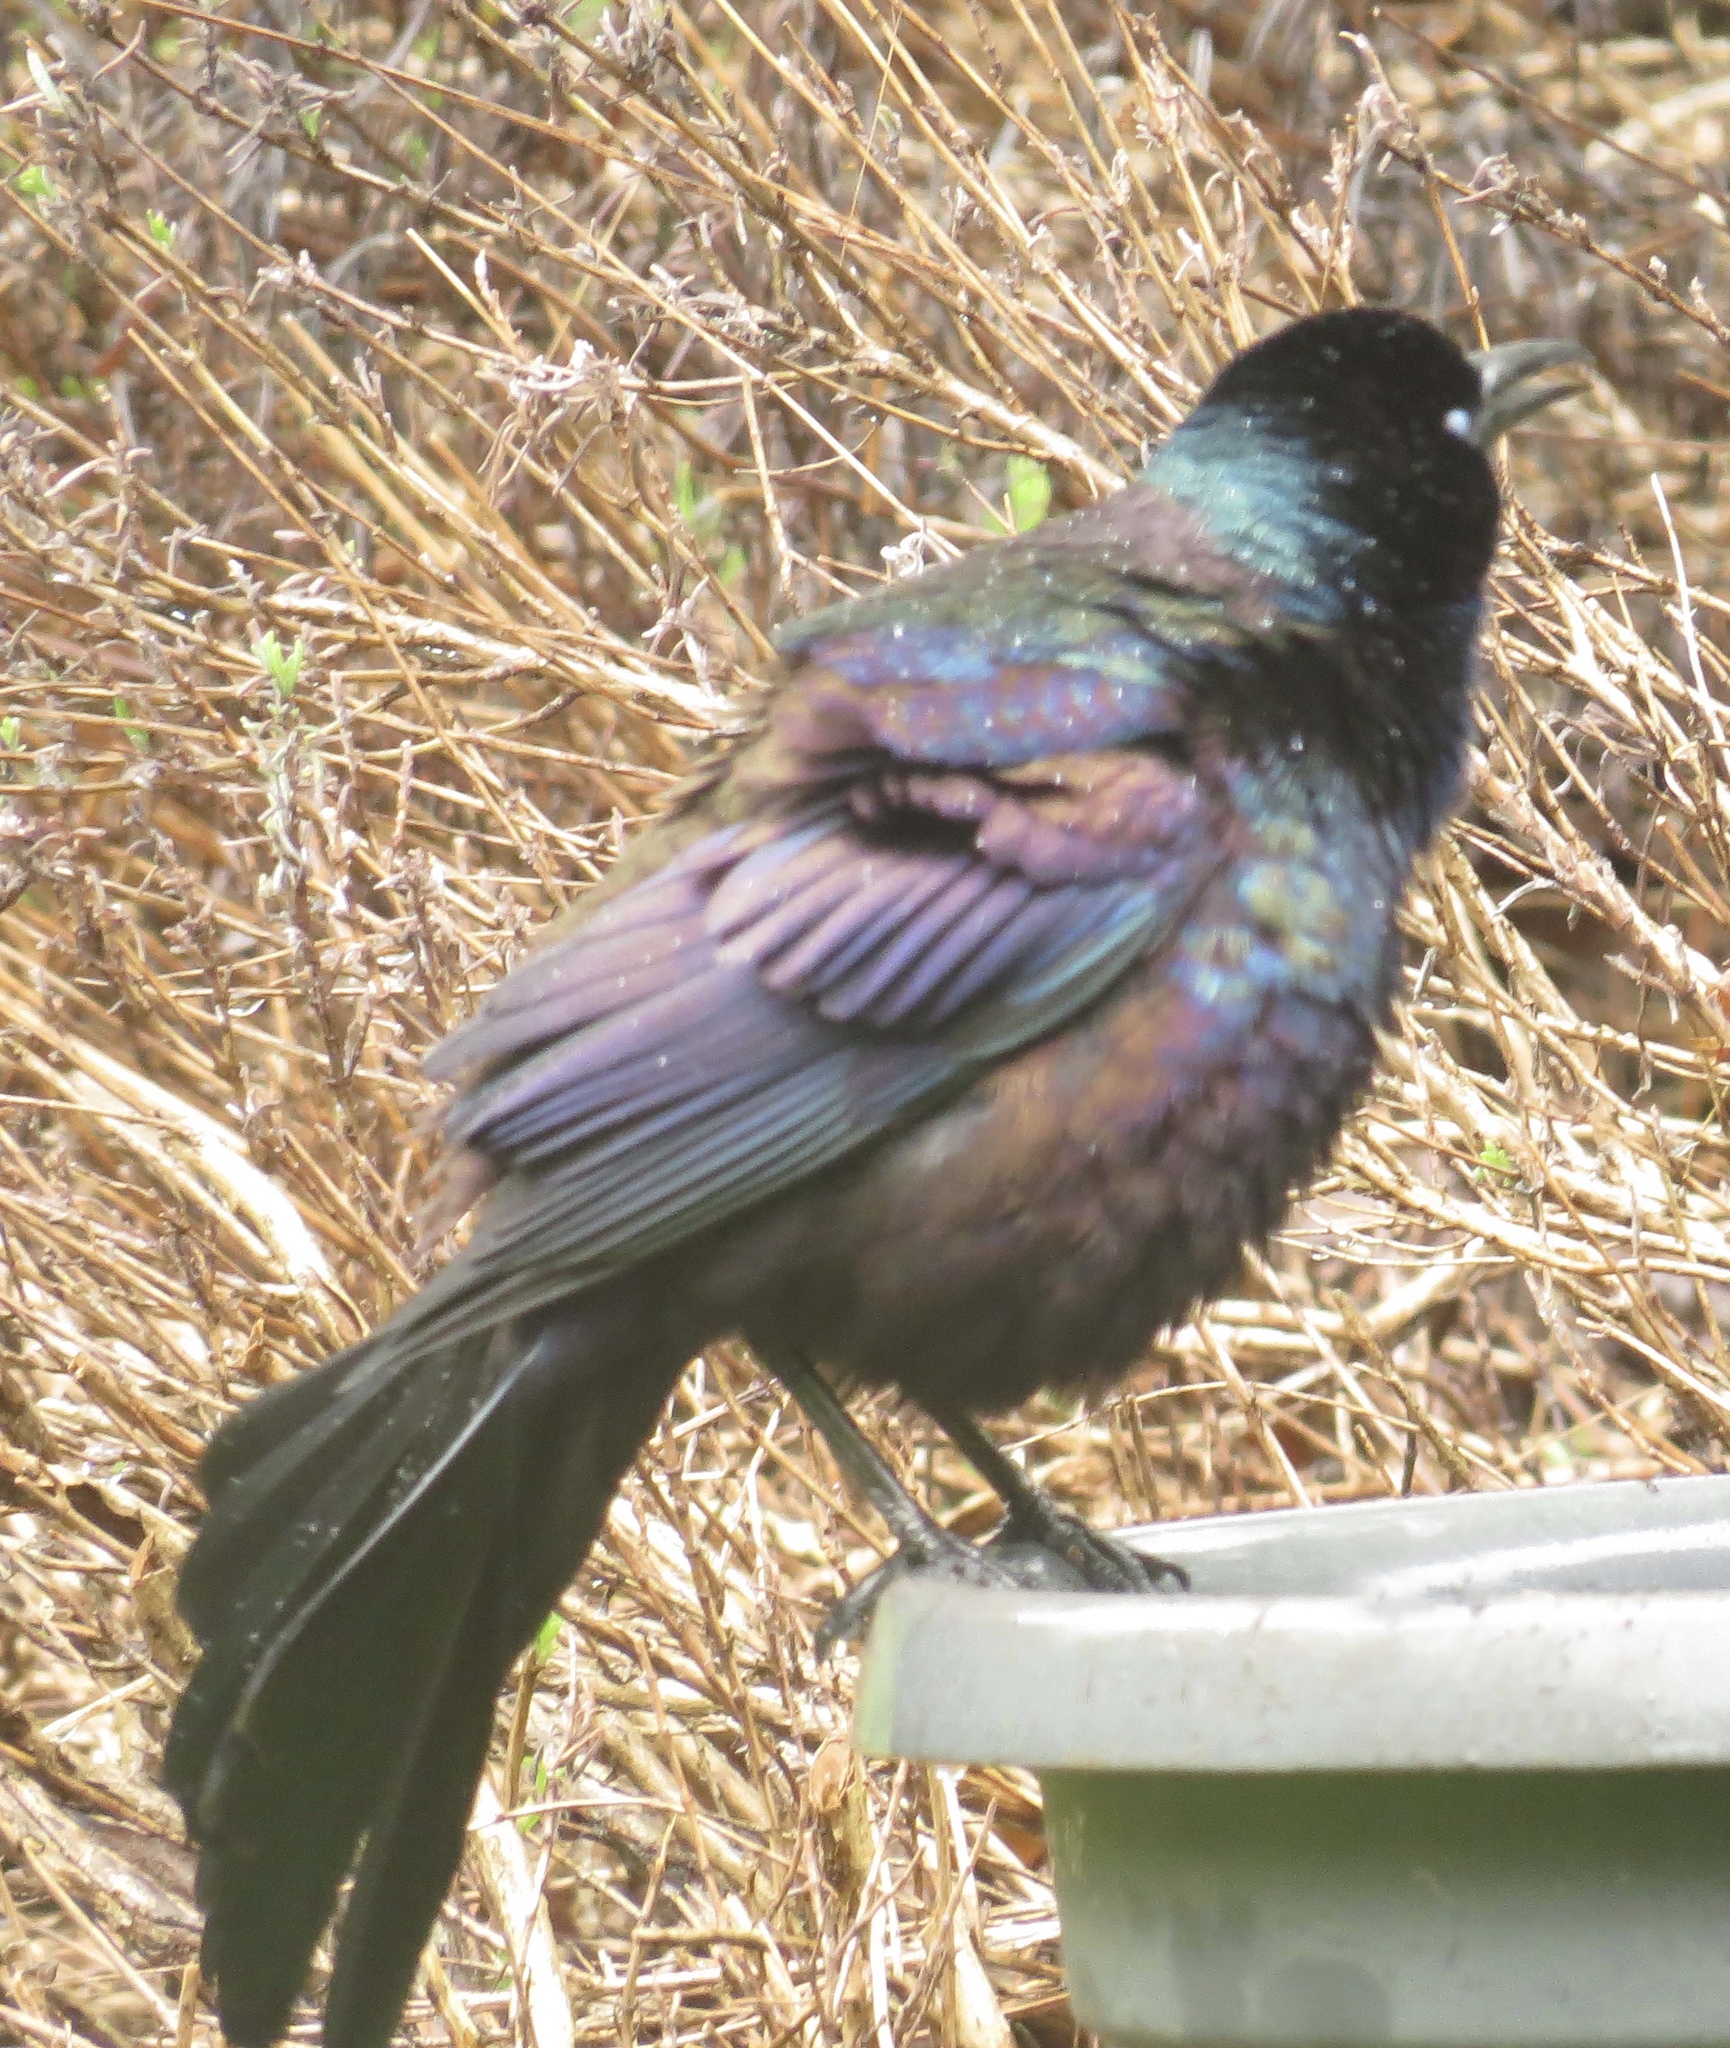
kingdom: Animalia
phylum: Chordata
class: Aves
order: Passeriformes
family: Icteridae
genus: Quiscalus
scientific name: Quiscalus quiscula
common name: Common grackle
